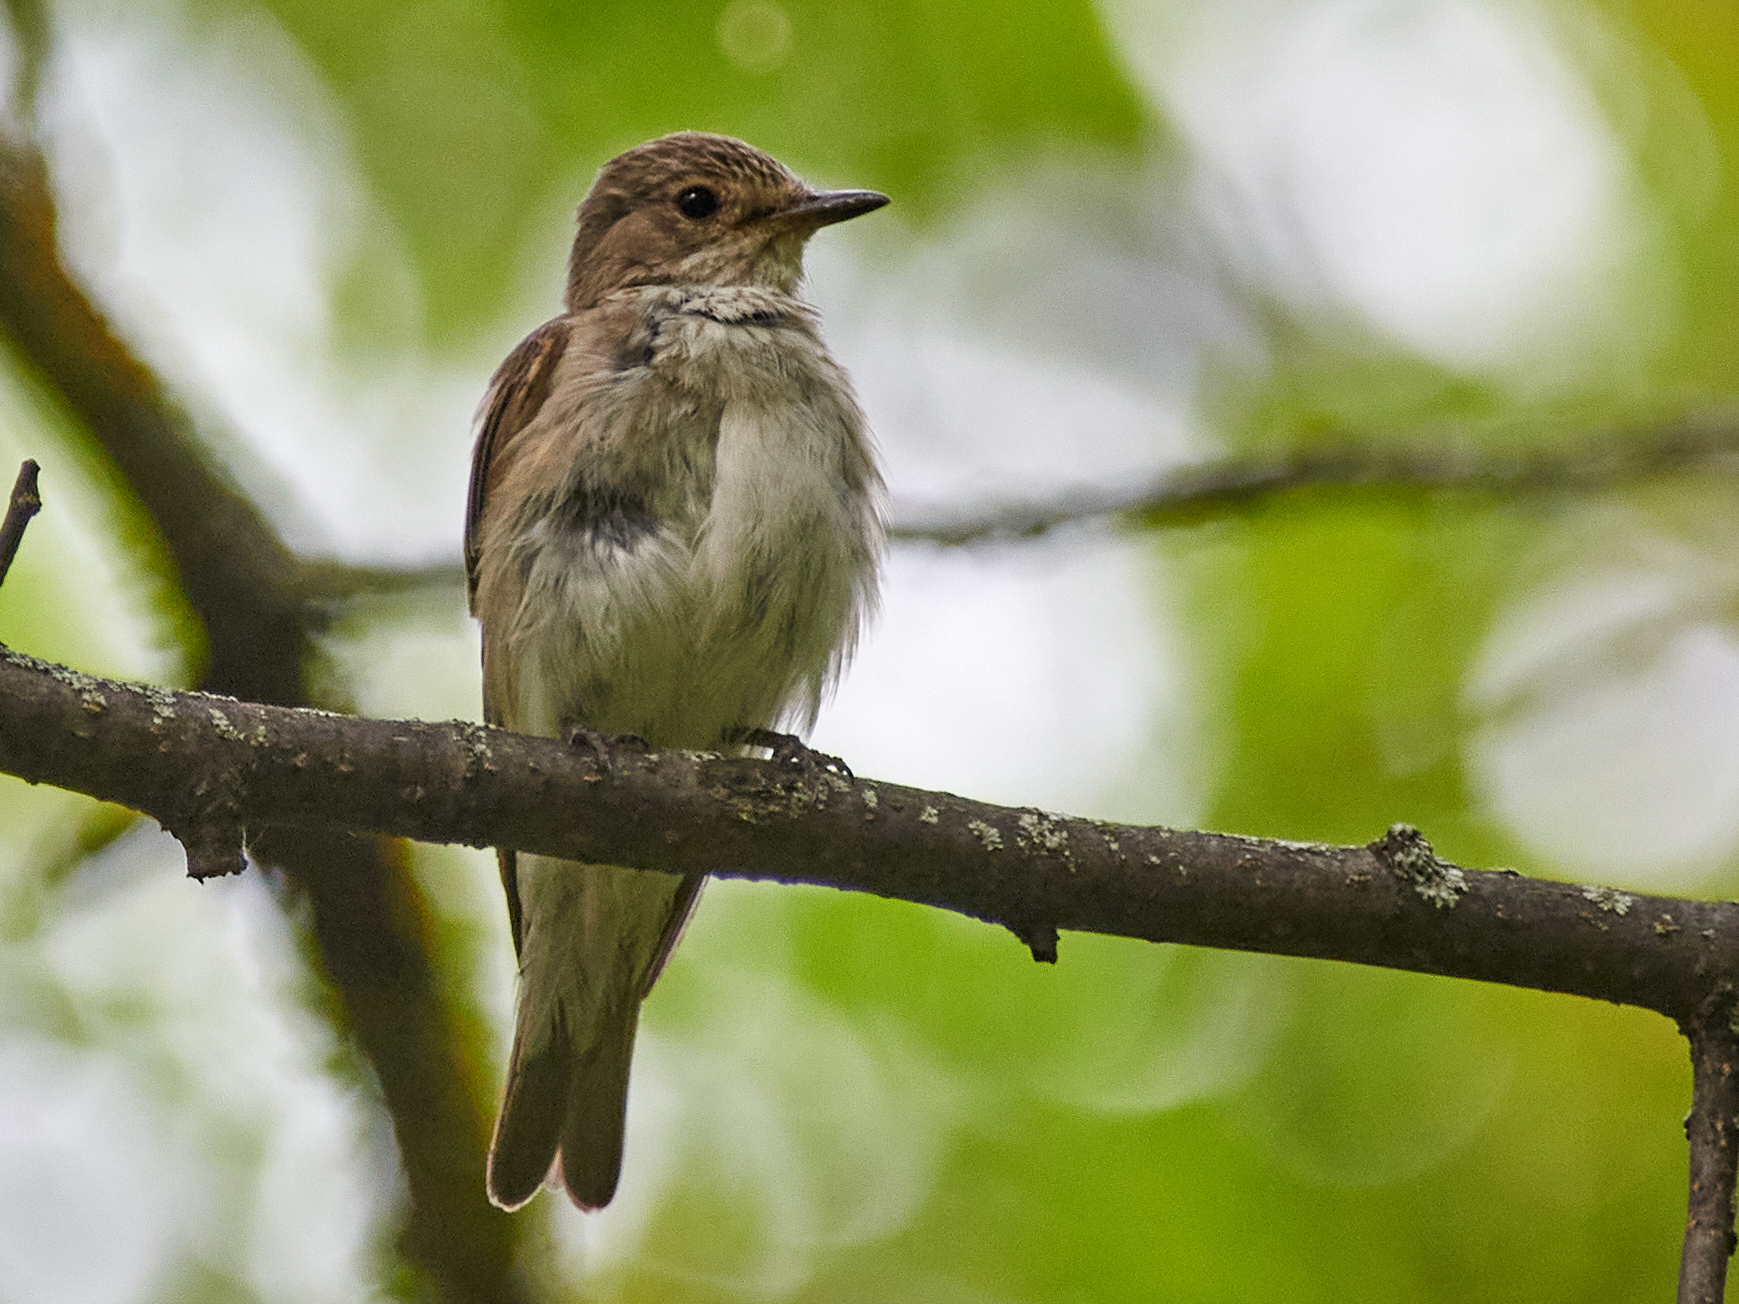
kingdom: Animalia
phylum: Chordata
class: Aves
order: Passeriformes
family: Muscicapidae
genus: Muscicapa
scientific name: Muscicapa striata
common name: Spotted flycatcher
